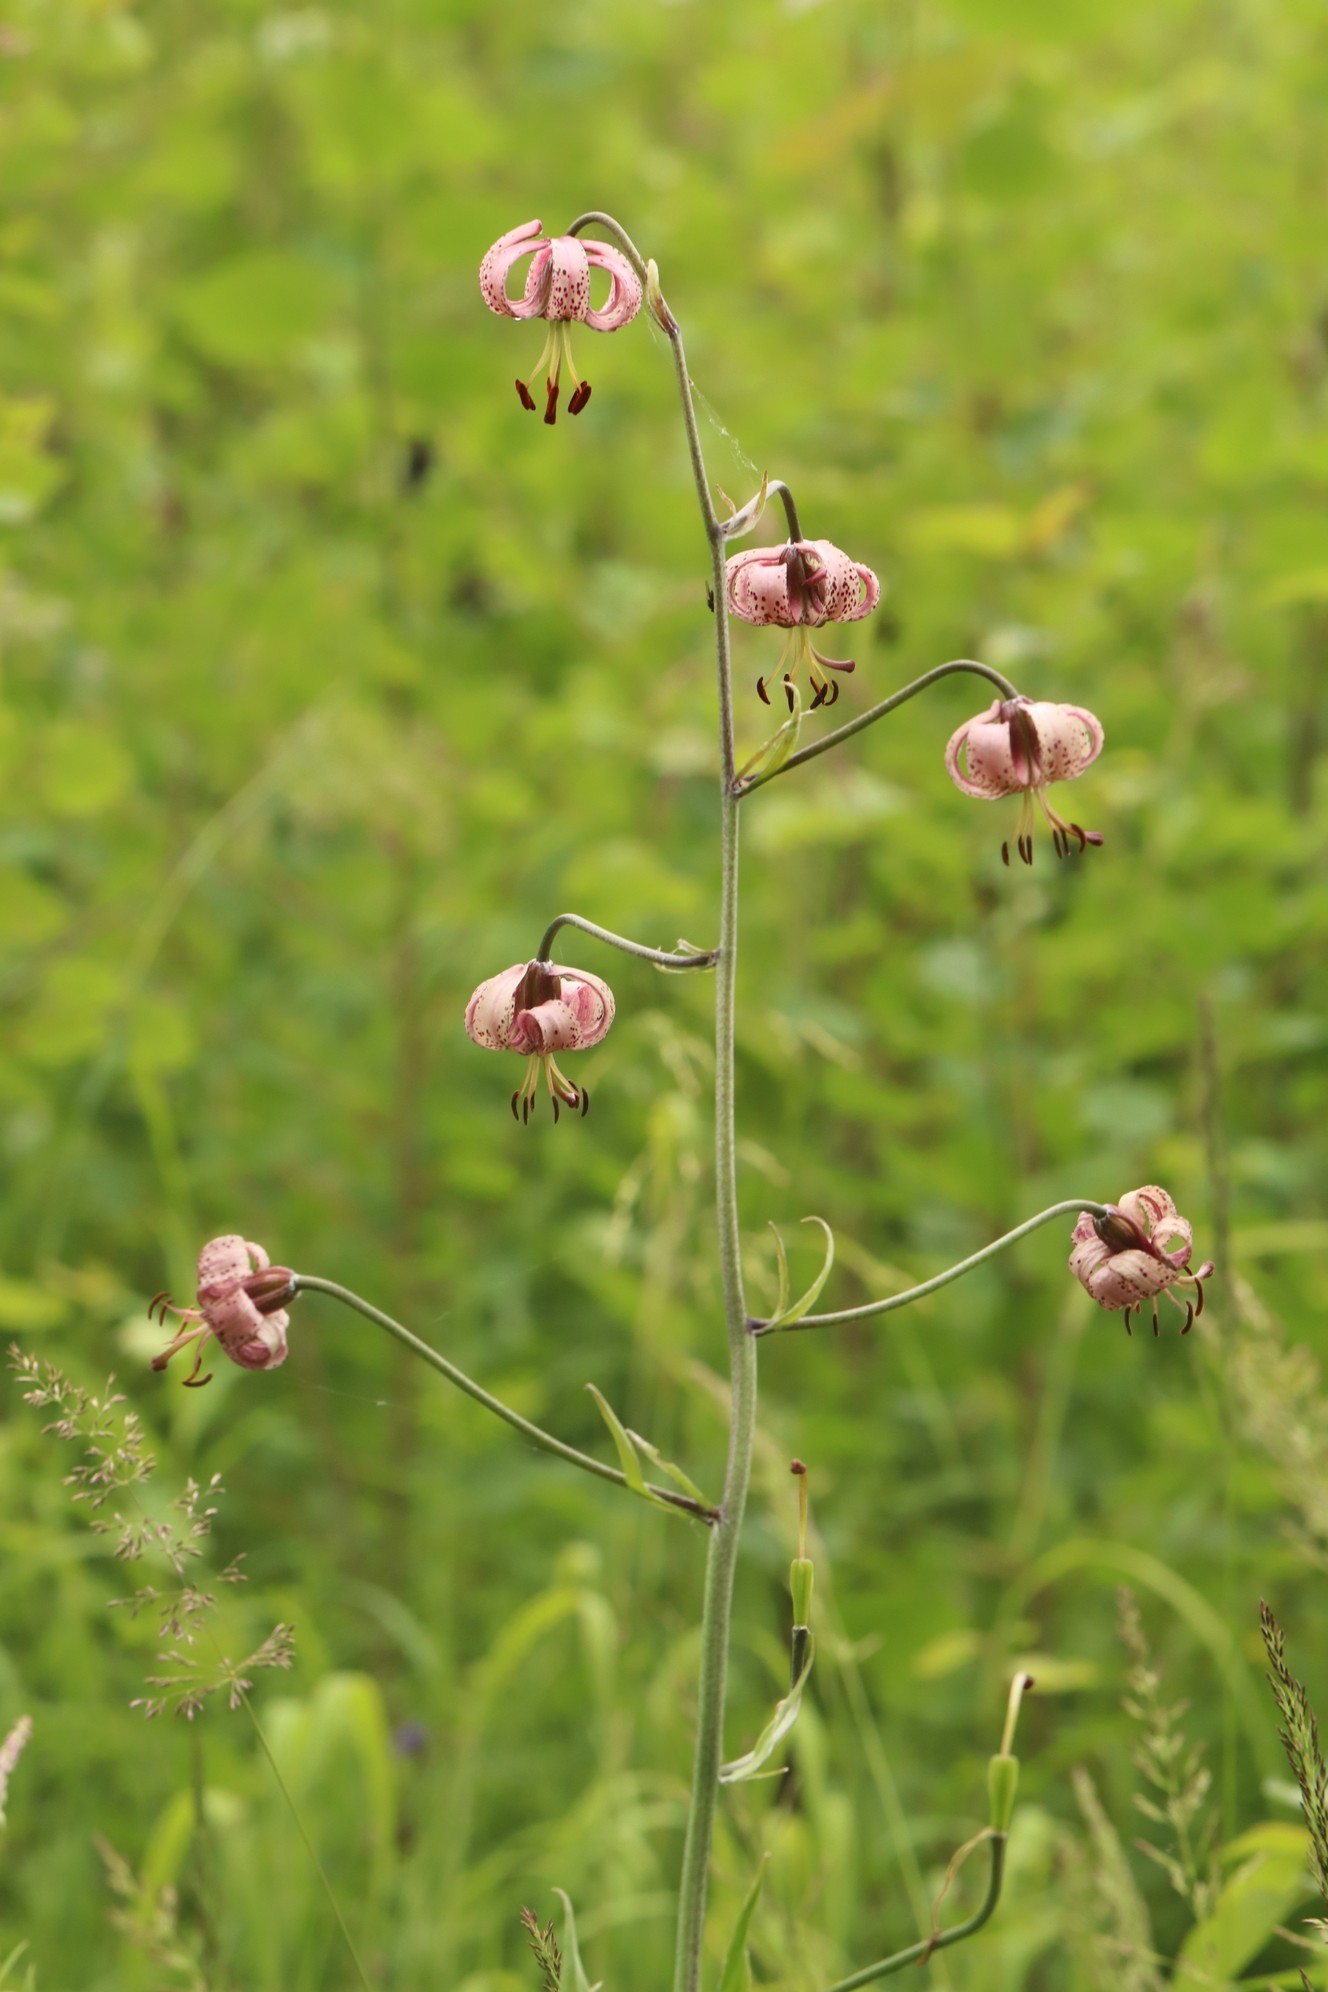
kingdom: Plantae
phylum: Tracheophyta
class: Liliopsida
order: Liliales
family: Liliaceae
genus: Lilium
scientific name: Lilium martagon
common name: Martagon lily
